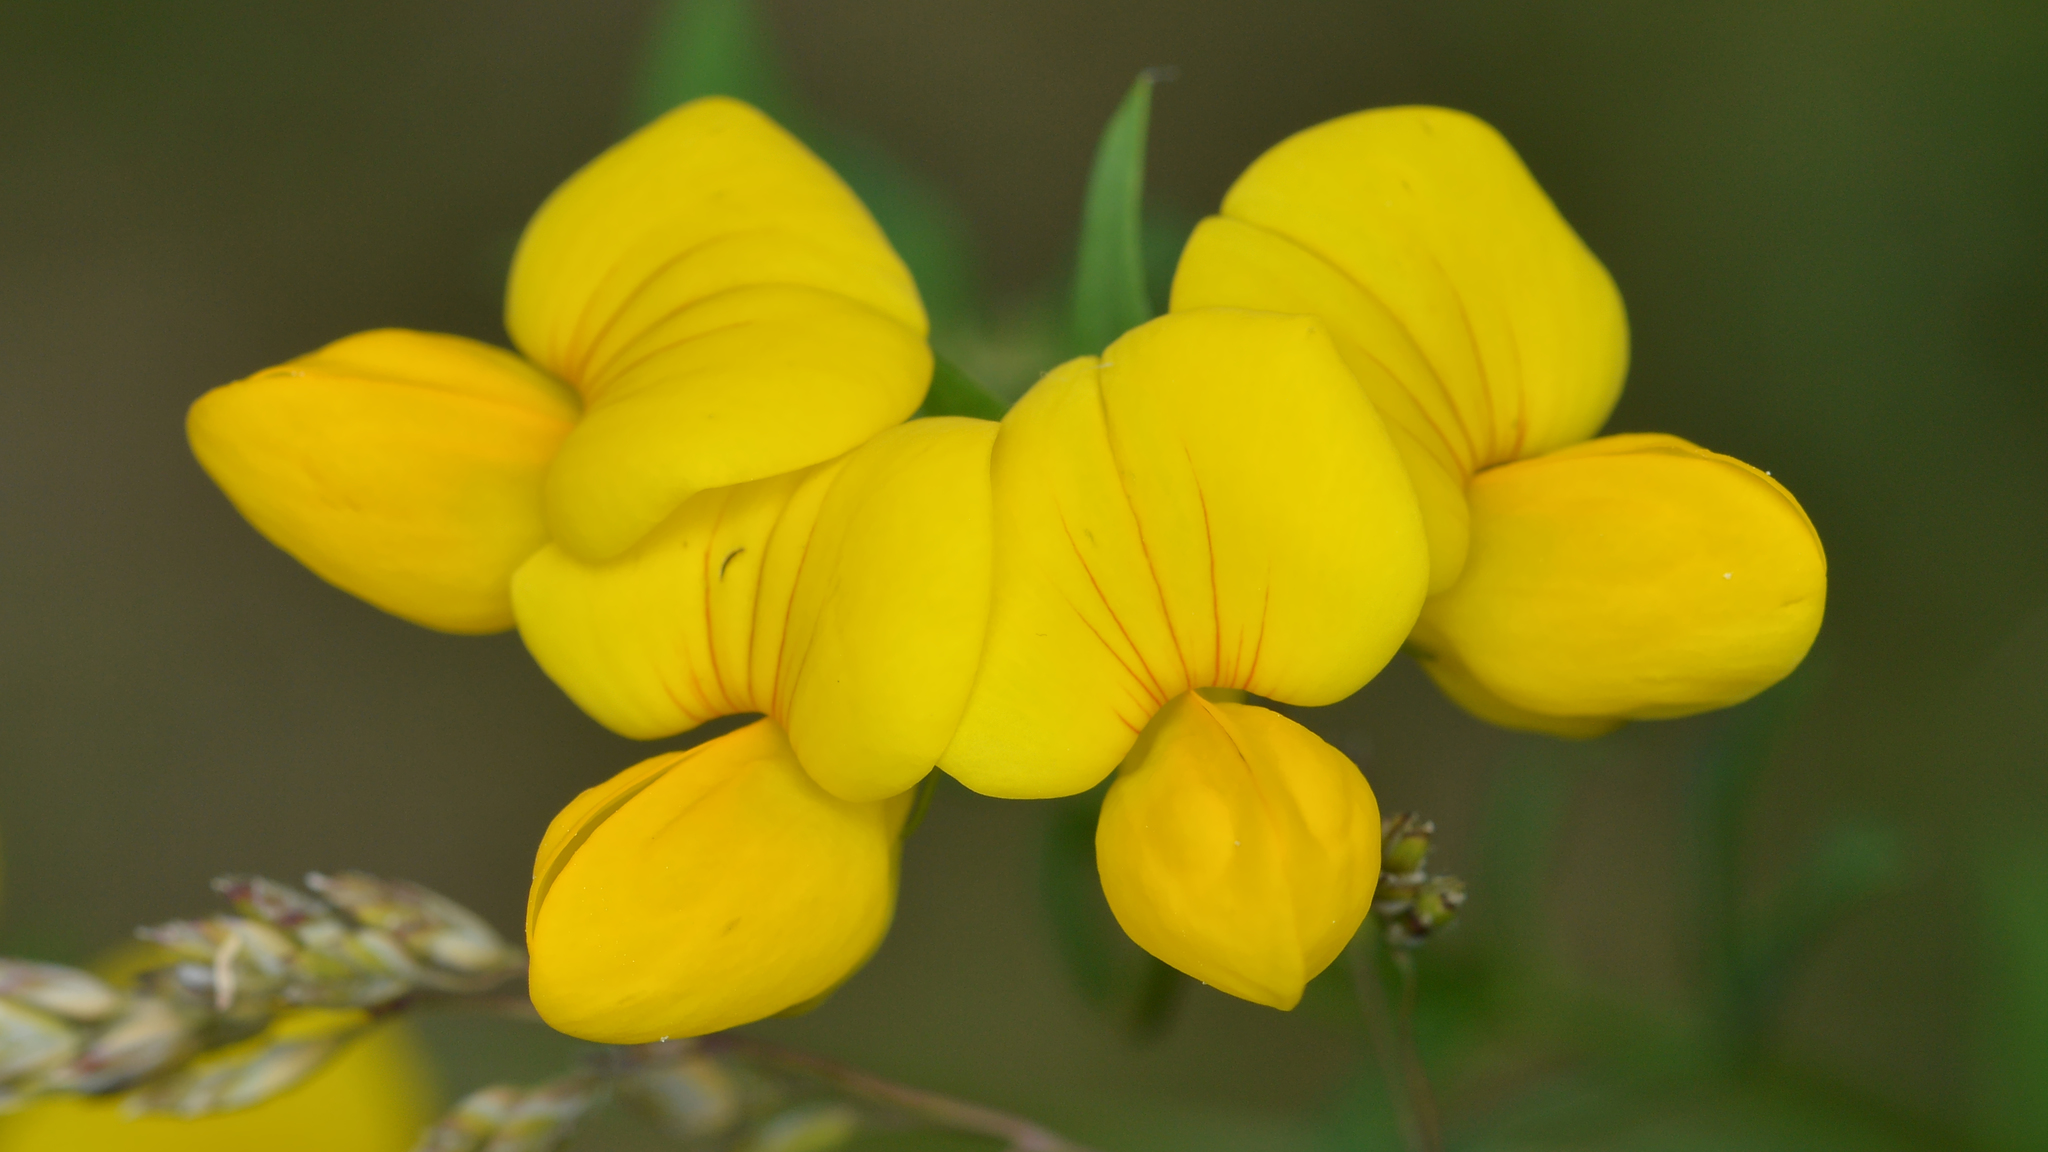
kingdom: Plantae
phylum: Tracheophyta
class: Magnoliopsida
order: Fabales
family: Fabaceae
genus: Lotus
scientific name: Lotus corniculatus
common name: Common bird's-foot-trefoil
